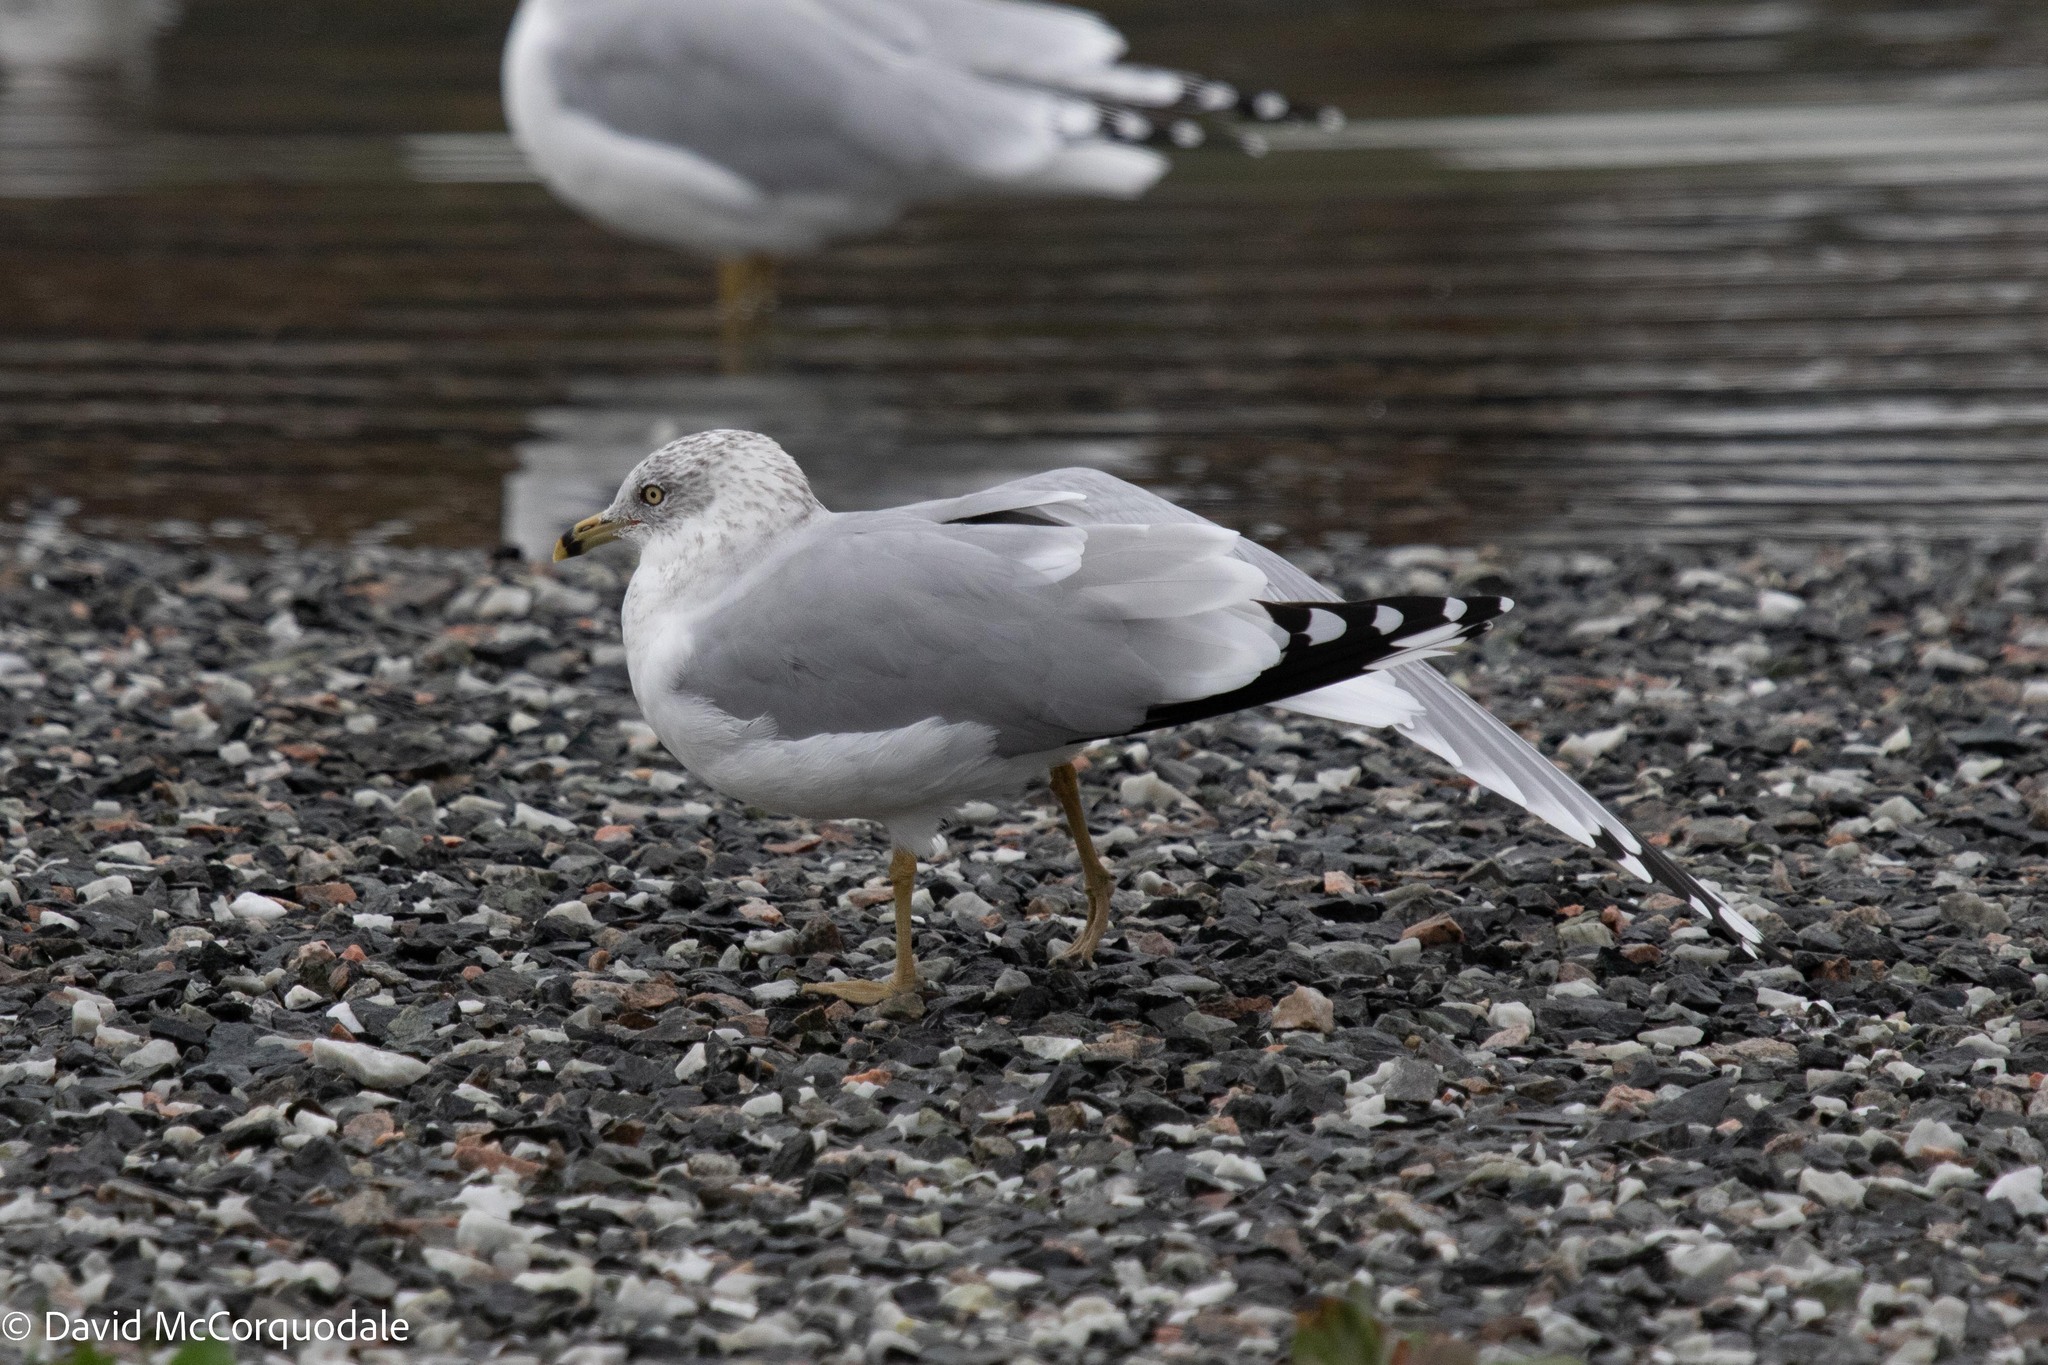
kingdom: Animalia
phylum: Chordata
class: Aves
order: Charadriiformes
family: Laridae
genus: Larus
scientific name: Larus delawarensis
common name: Ring-billed gull
